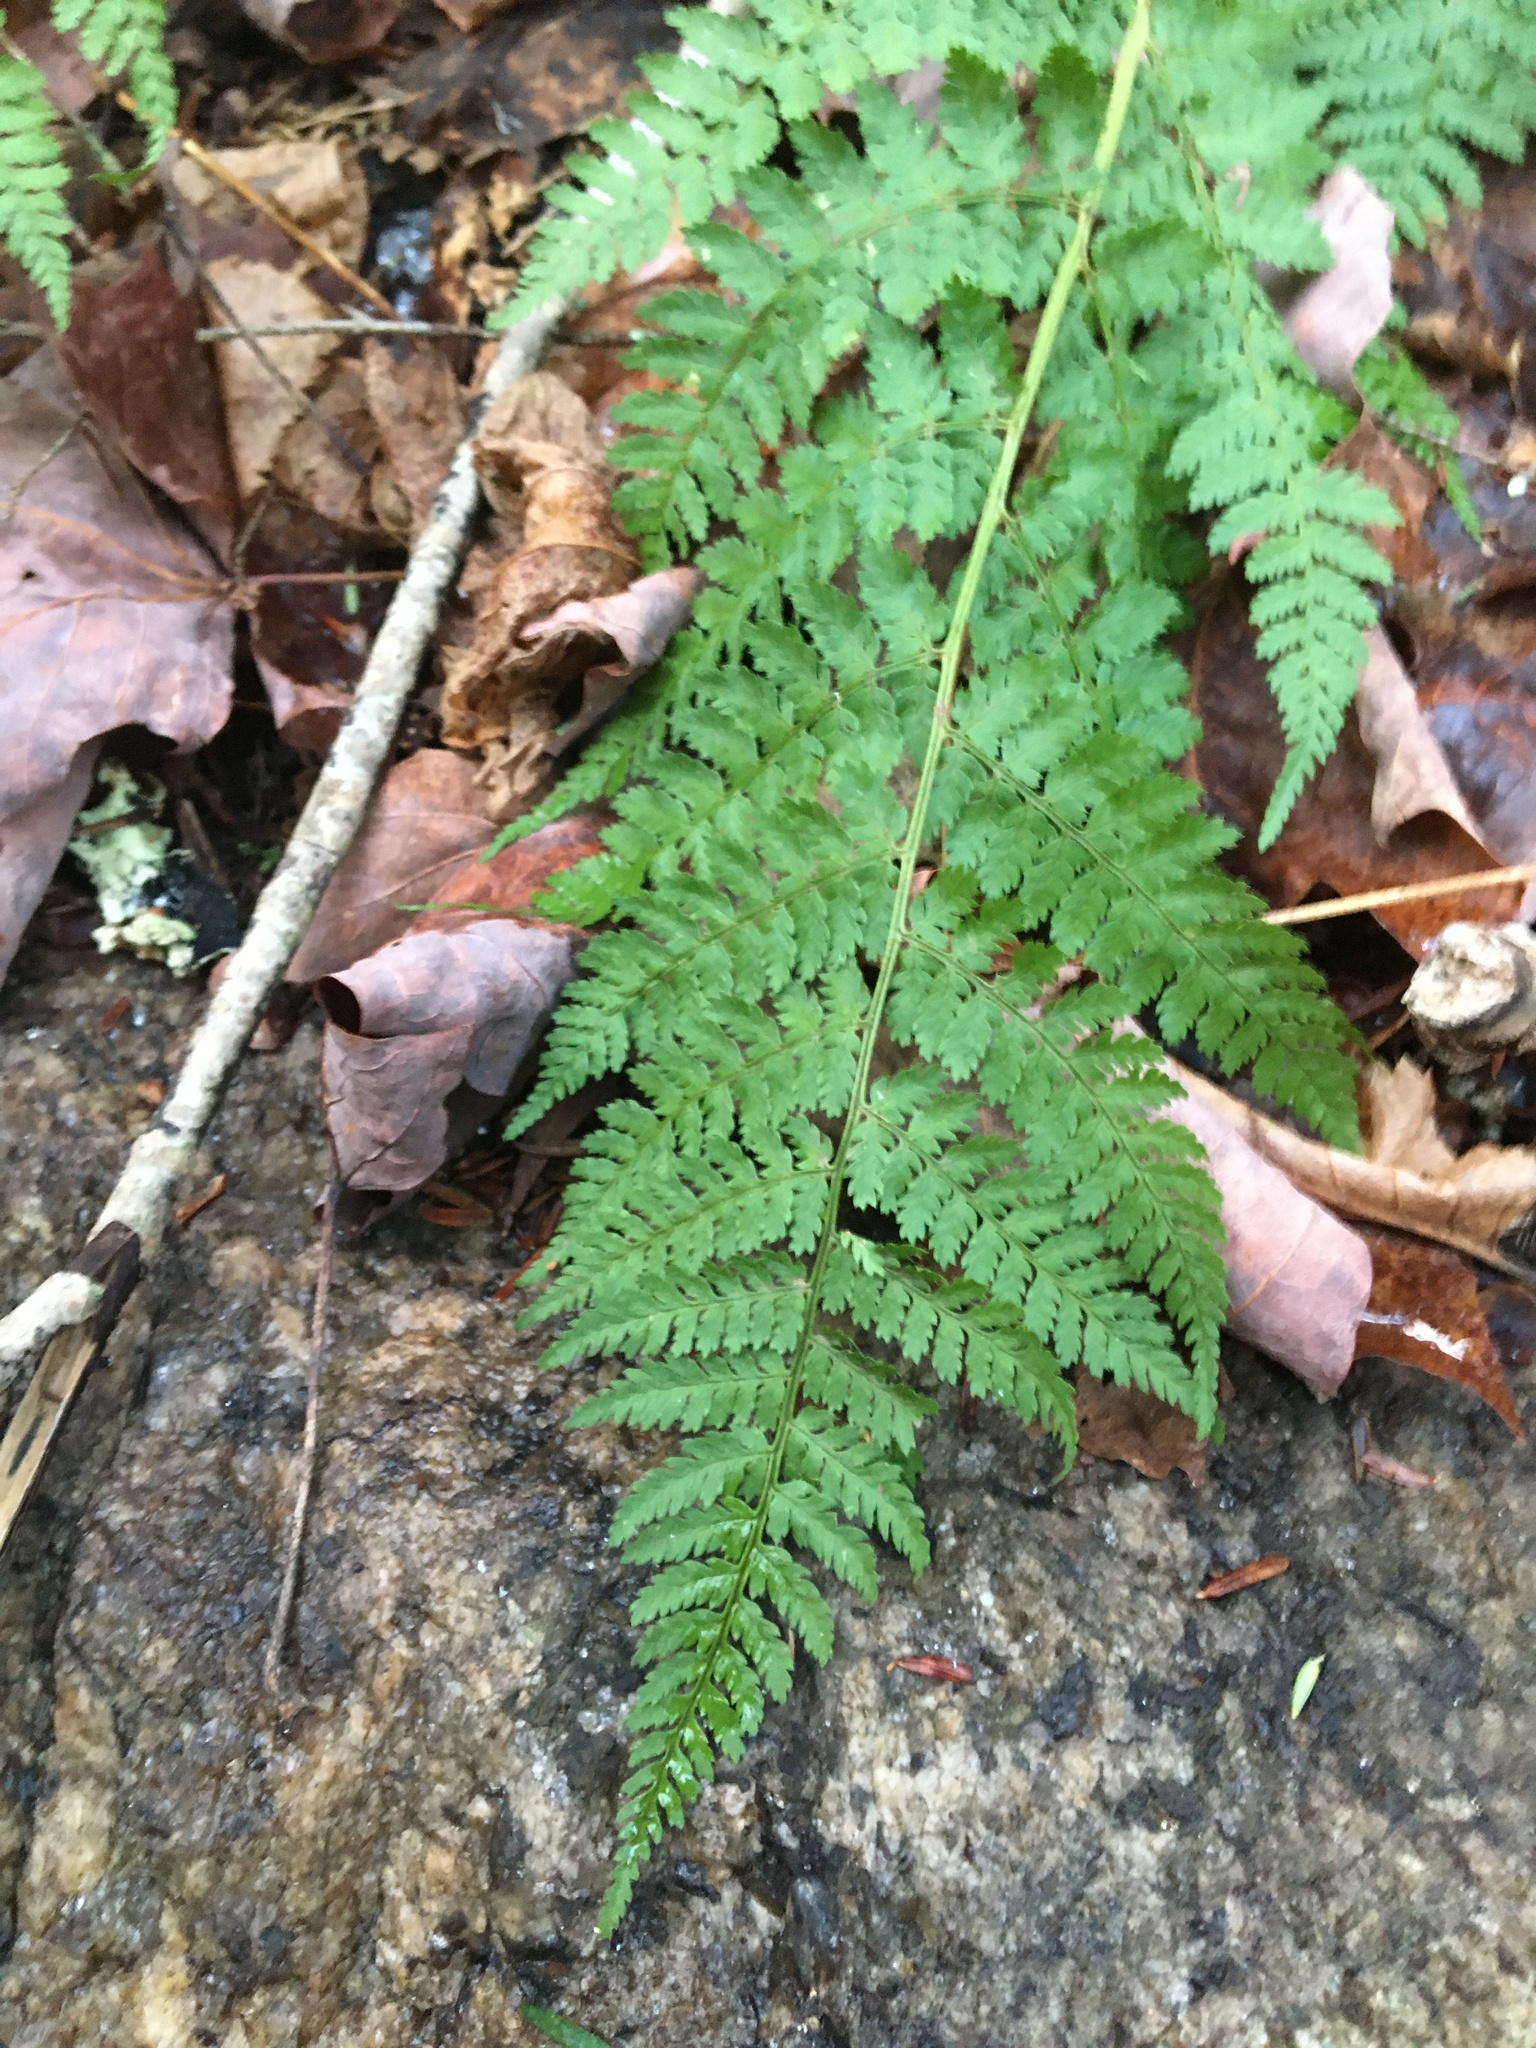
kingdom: Plantae
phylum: Tracheophyta
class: Polypodiopsida
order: Polypodiales
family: Dryopteridaceae
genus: Dryopteris
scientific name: Dryopteris intermedia
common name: Evergreen wood fern
